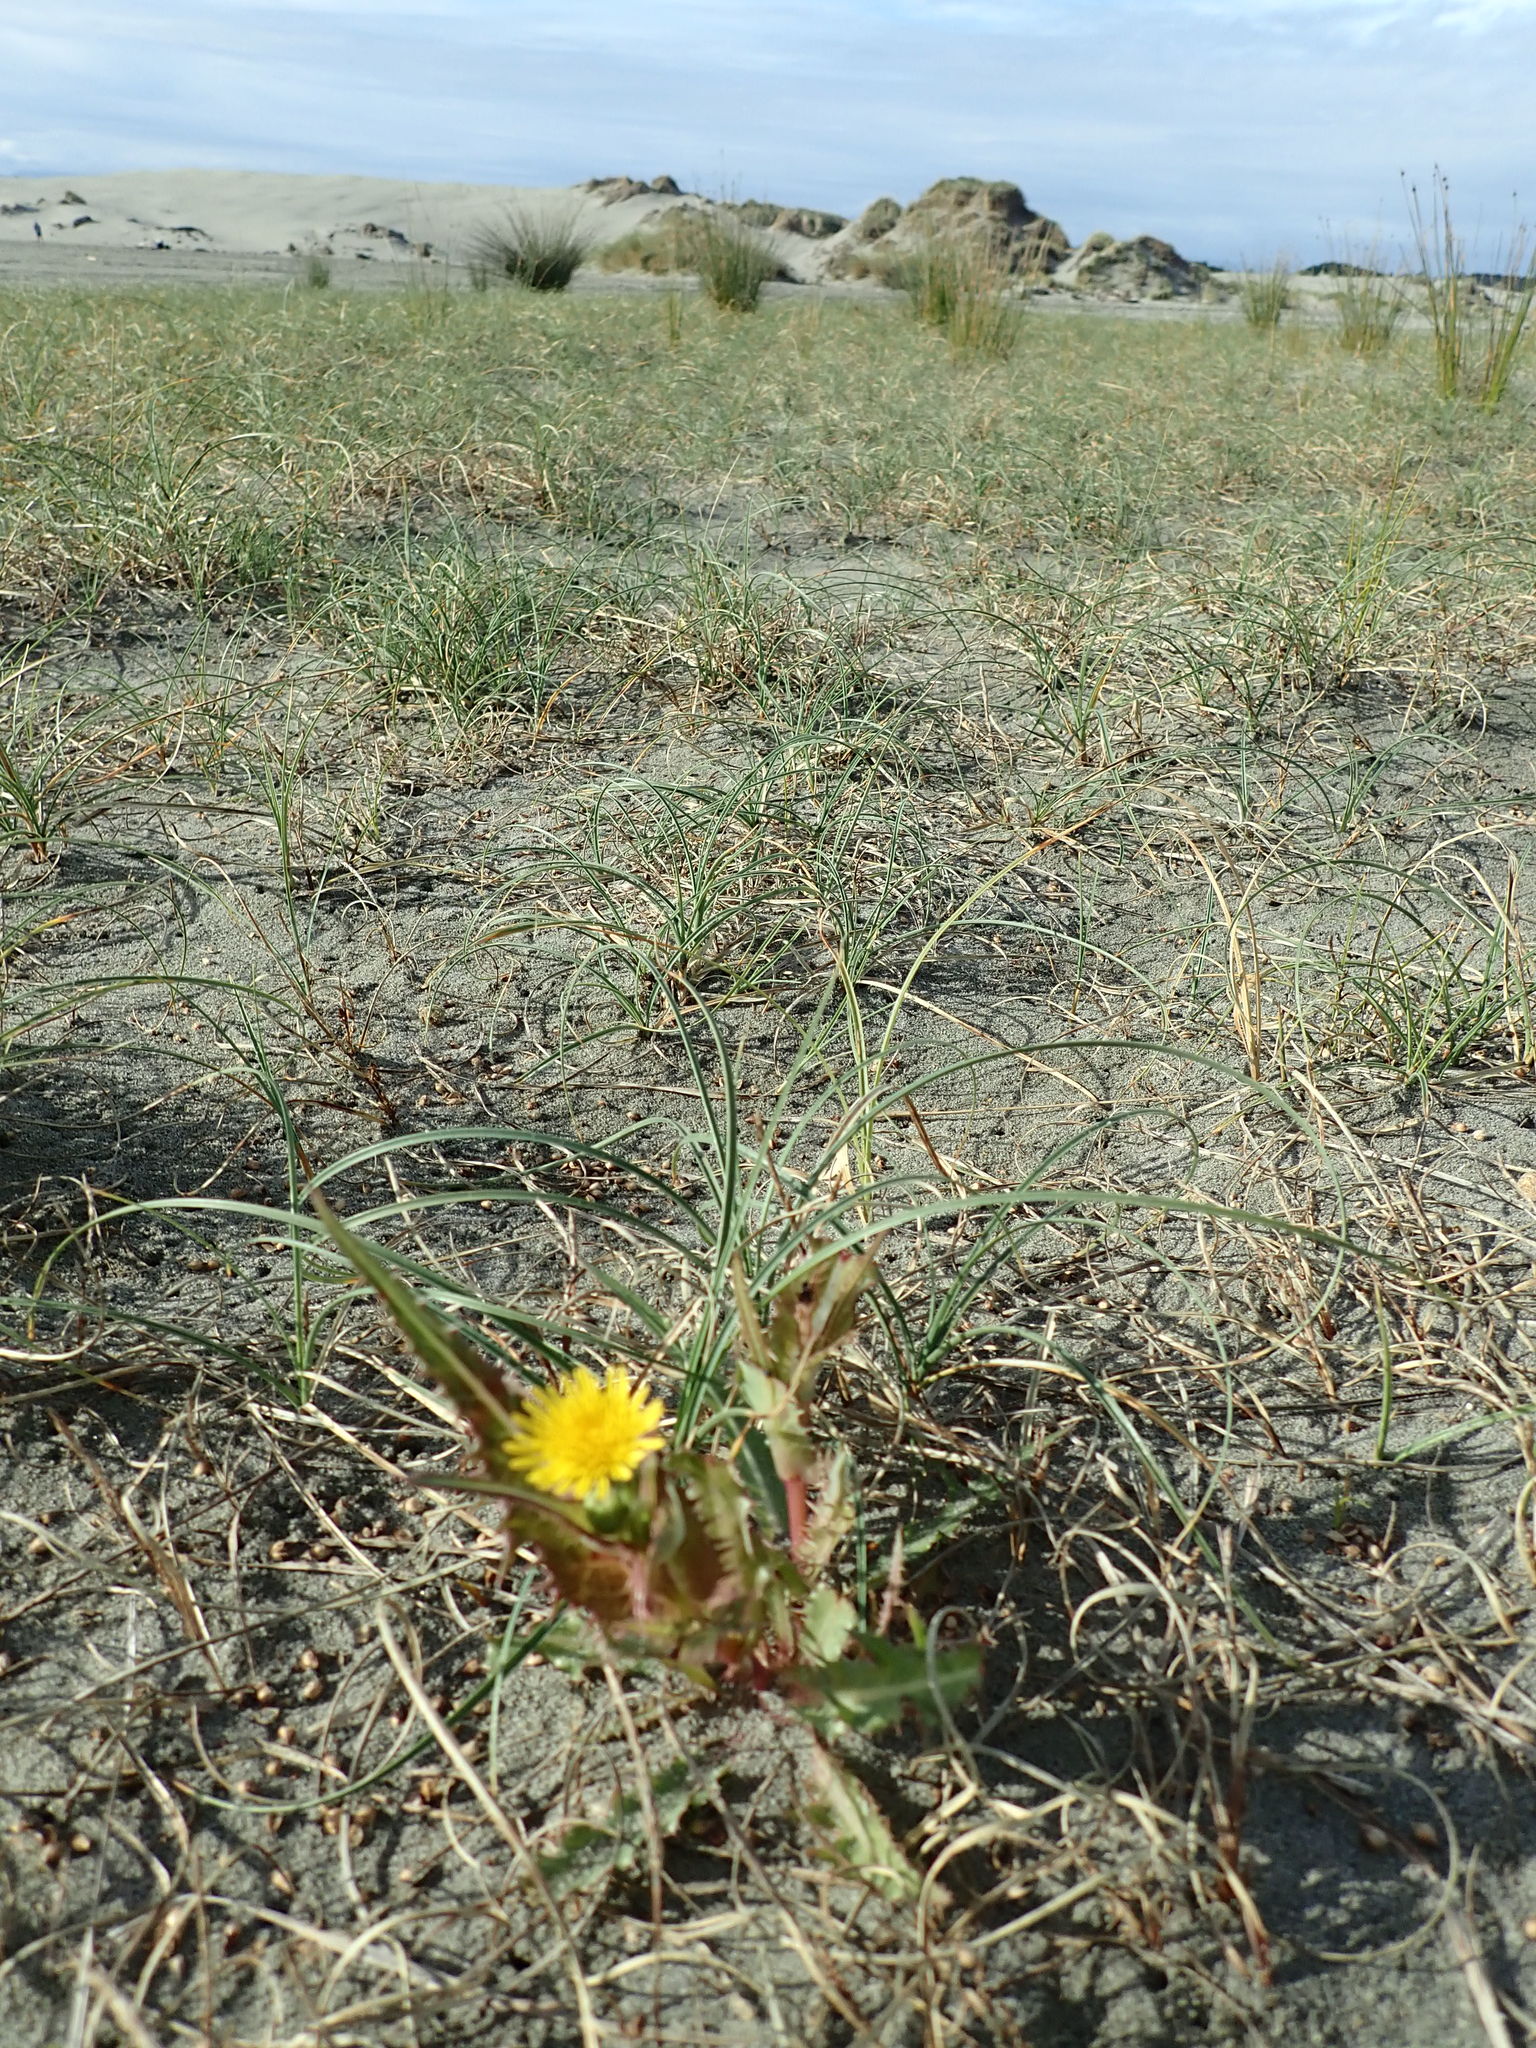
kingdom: Plantae
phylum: Tracheophyta
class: Magnoliopsida
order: Asterales
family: Asteraceae
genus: Sonchus
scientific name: Sonchus oleraceus
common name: Common sowthistle
